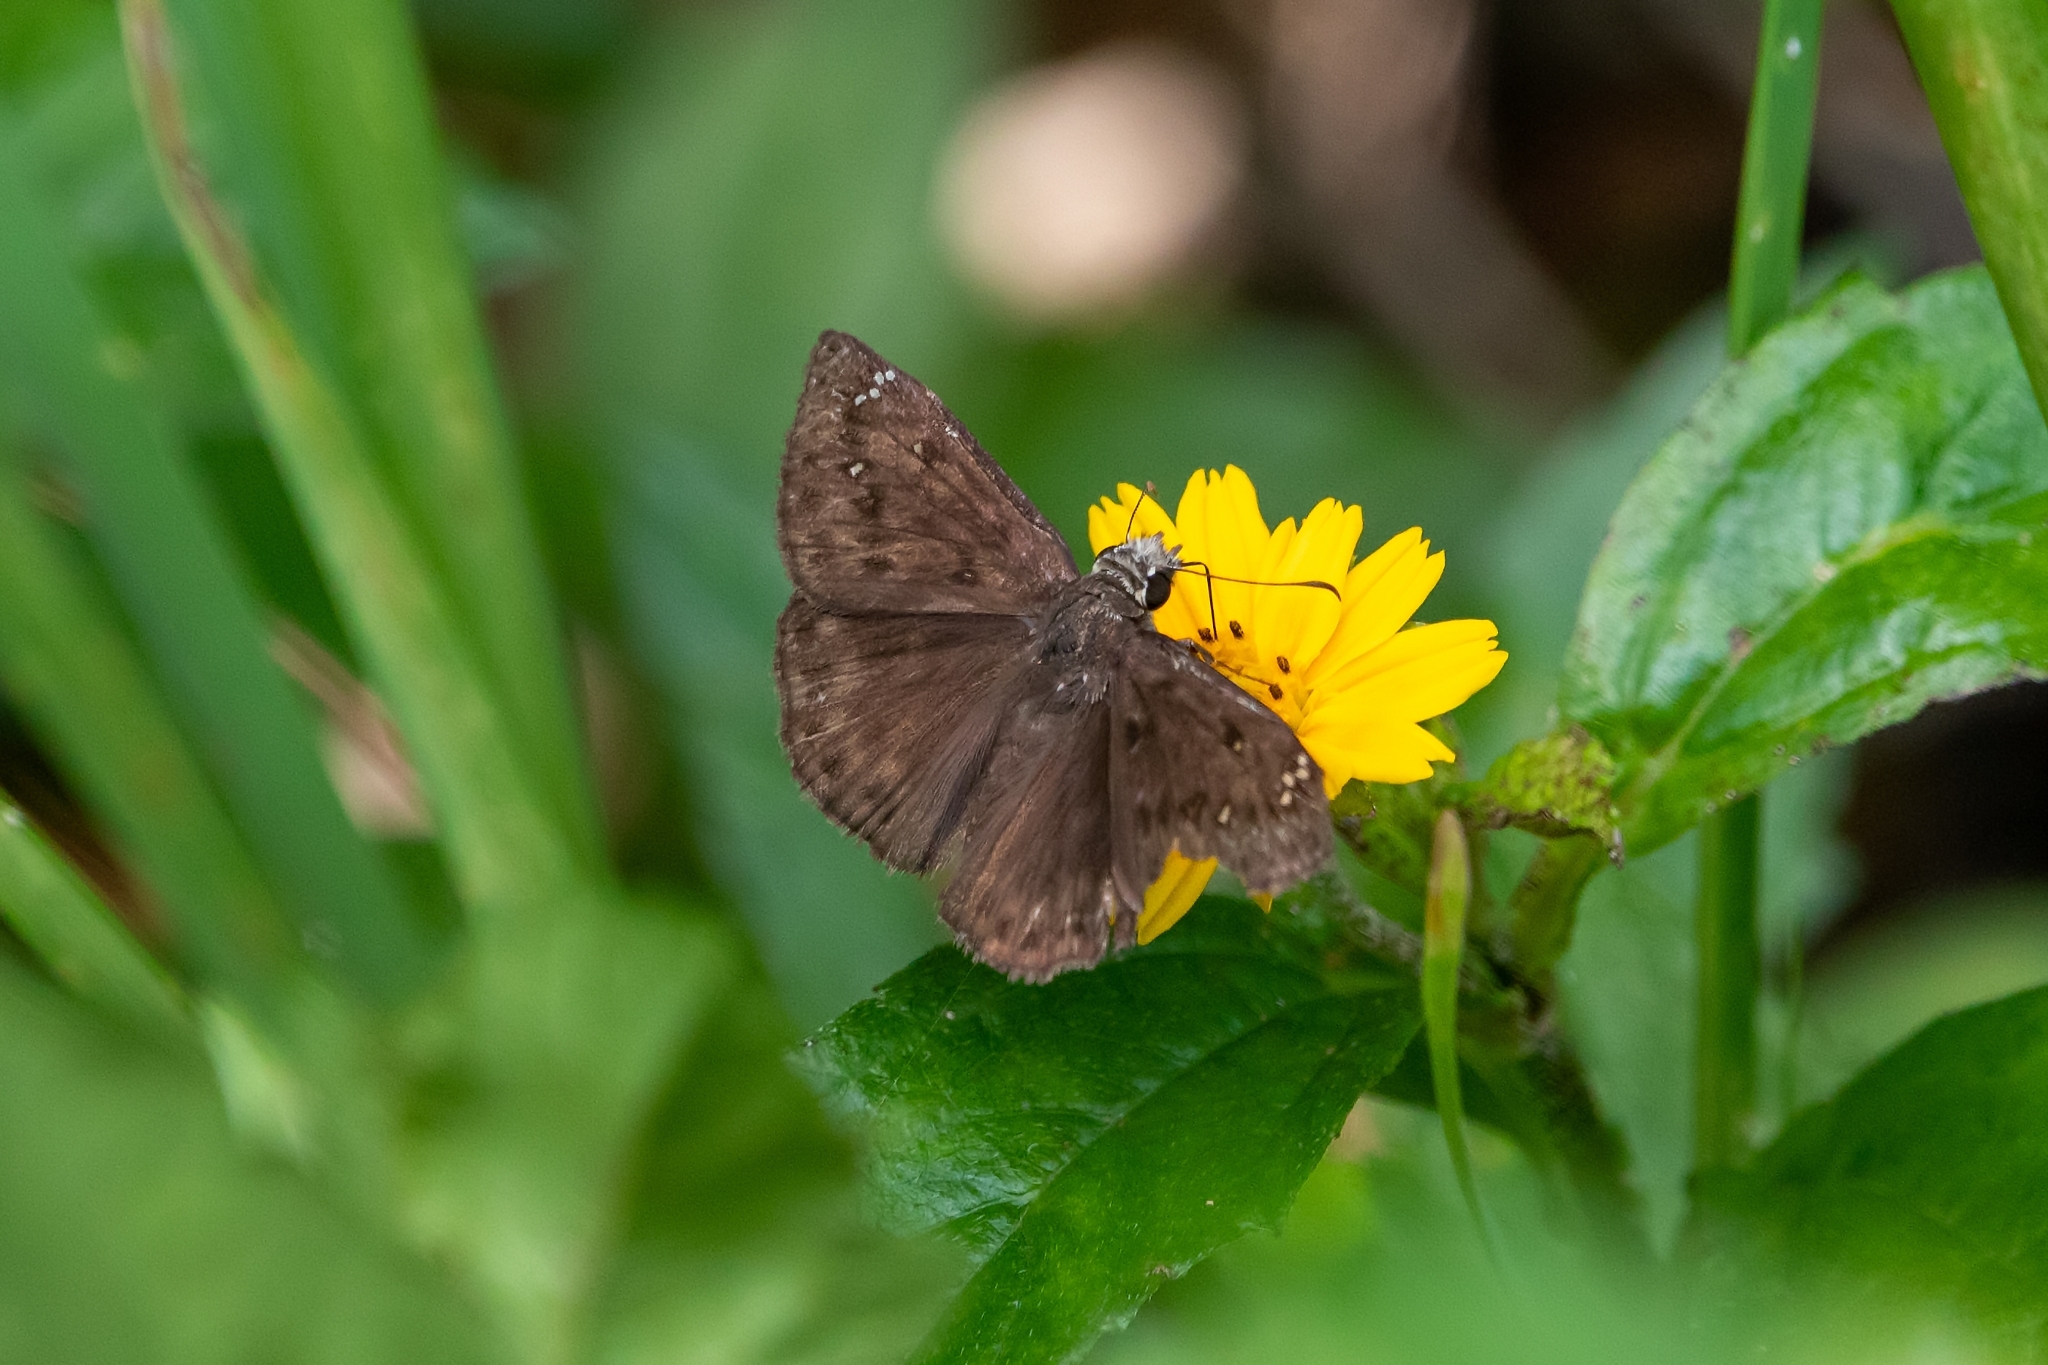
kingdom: Animalia
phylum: Arthropoda
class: Insecta
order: Lepidoptera
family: Hesperiidae
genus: Erynnis
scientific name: Erynnis horatius
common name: Horace's duskywing
